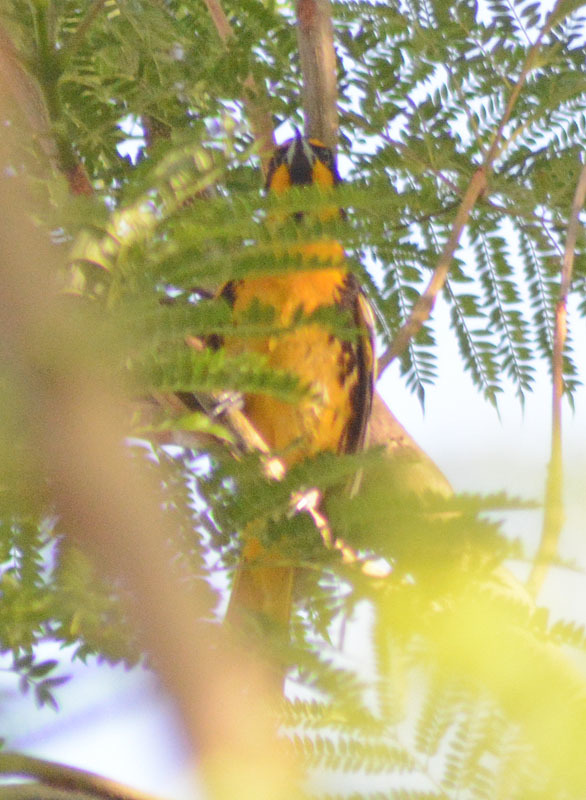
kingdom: Animalia
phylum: Chordata
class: Aves
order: Passeriformes
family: Icteridae
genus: Icterus
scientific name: Icterus abeillei
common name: Black-backed oriole
